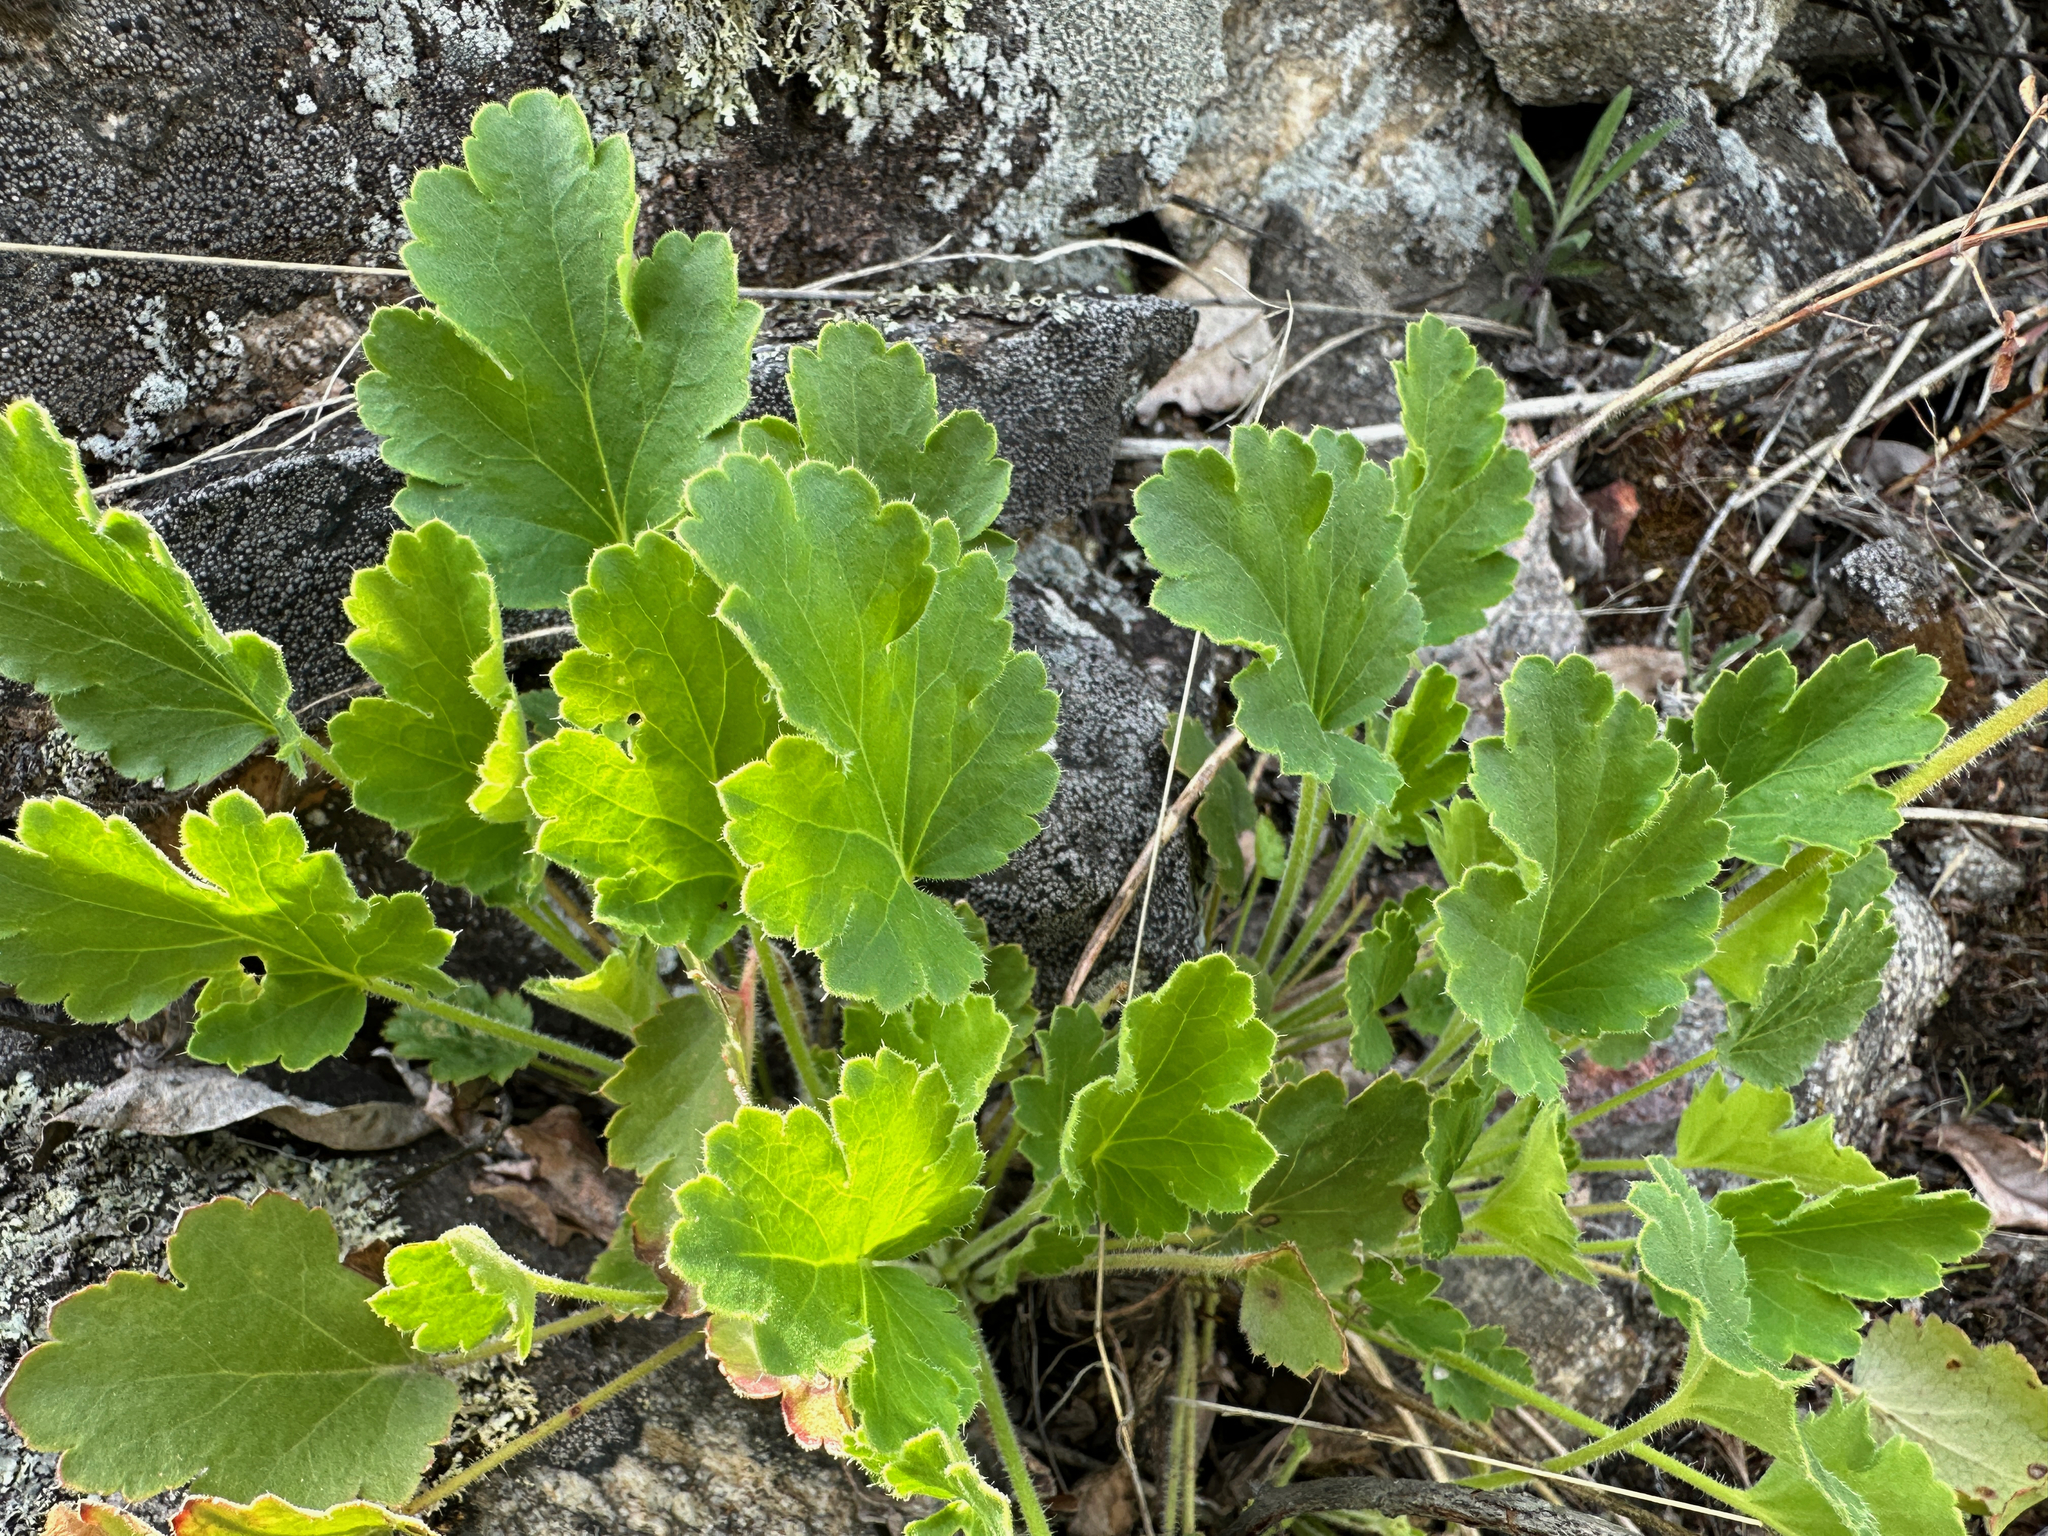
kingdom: Plantae
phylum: Tracheophyta
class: Magnoliopsida
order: Saxifragales
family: Saxifragaceae
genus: Heuchera
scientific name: Heuchera cylindrica
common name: Mat alumroot
